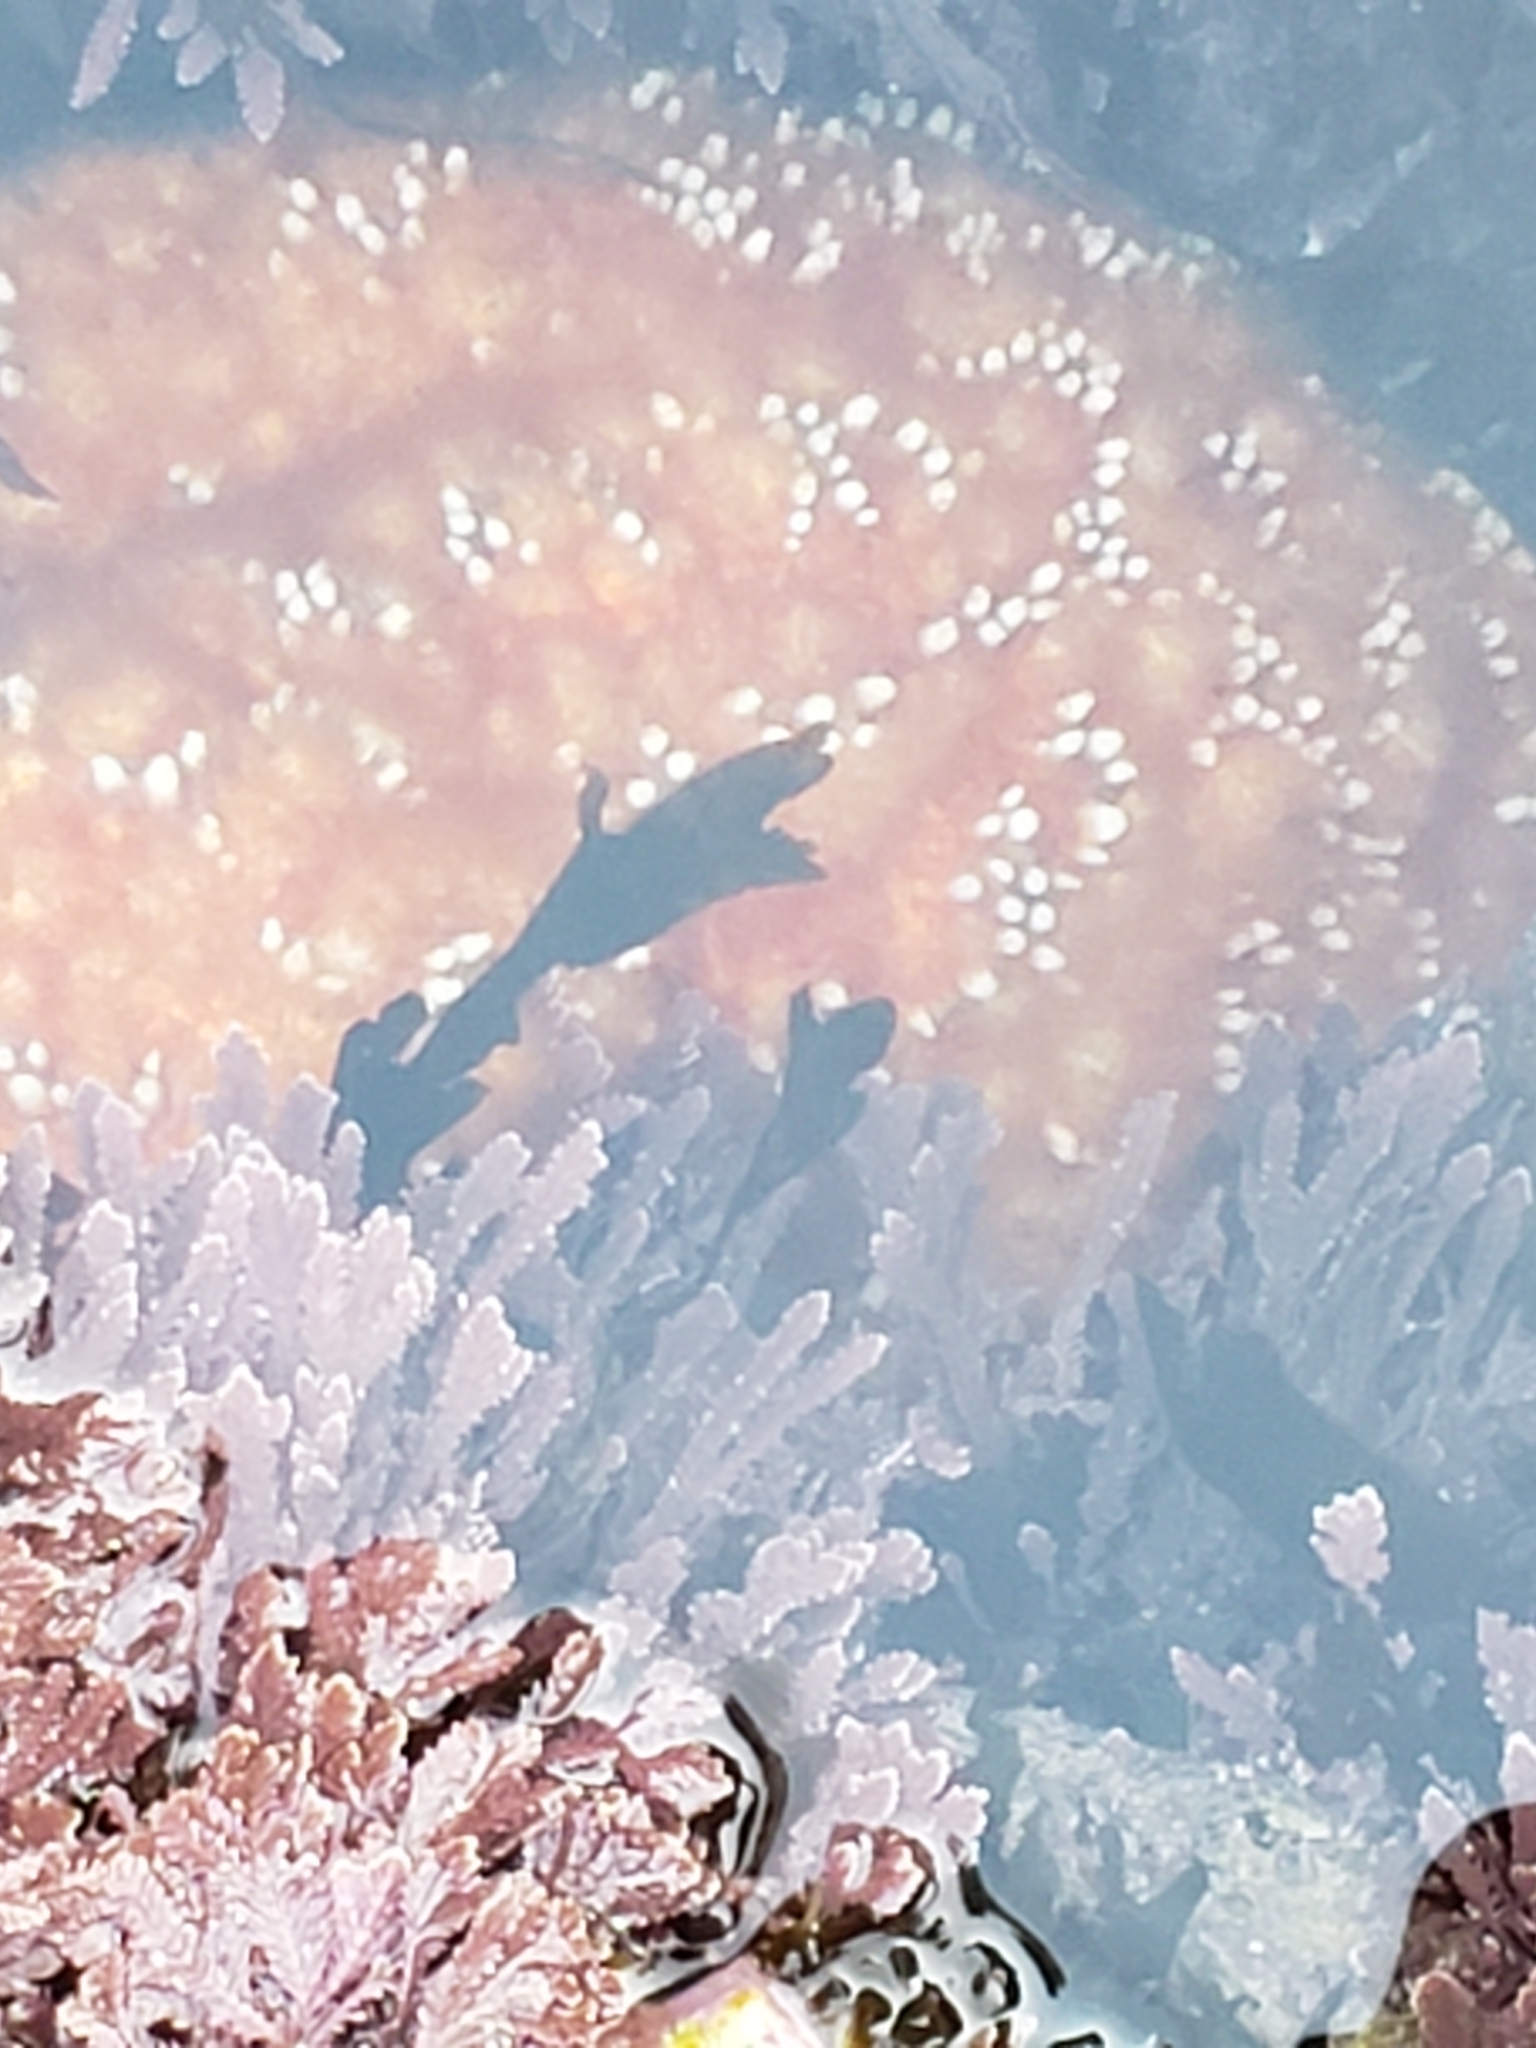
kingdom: Animalia
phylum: Echinodermata
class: Asteroidea
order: Forcipulatida
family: Asteriidae
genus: Pisaster
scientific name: Pisaster ochraceus
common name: Ochre stars
